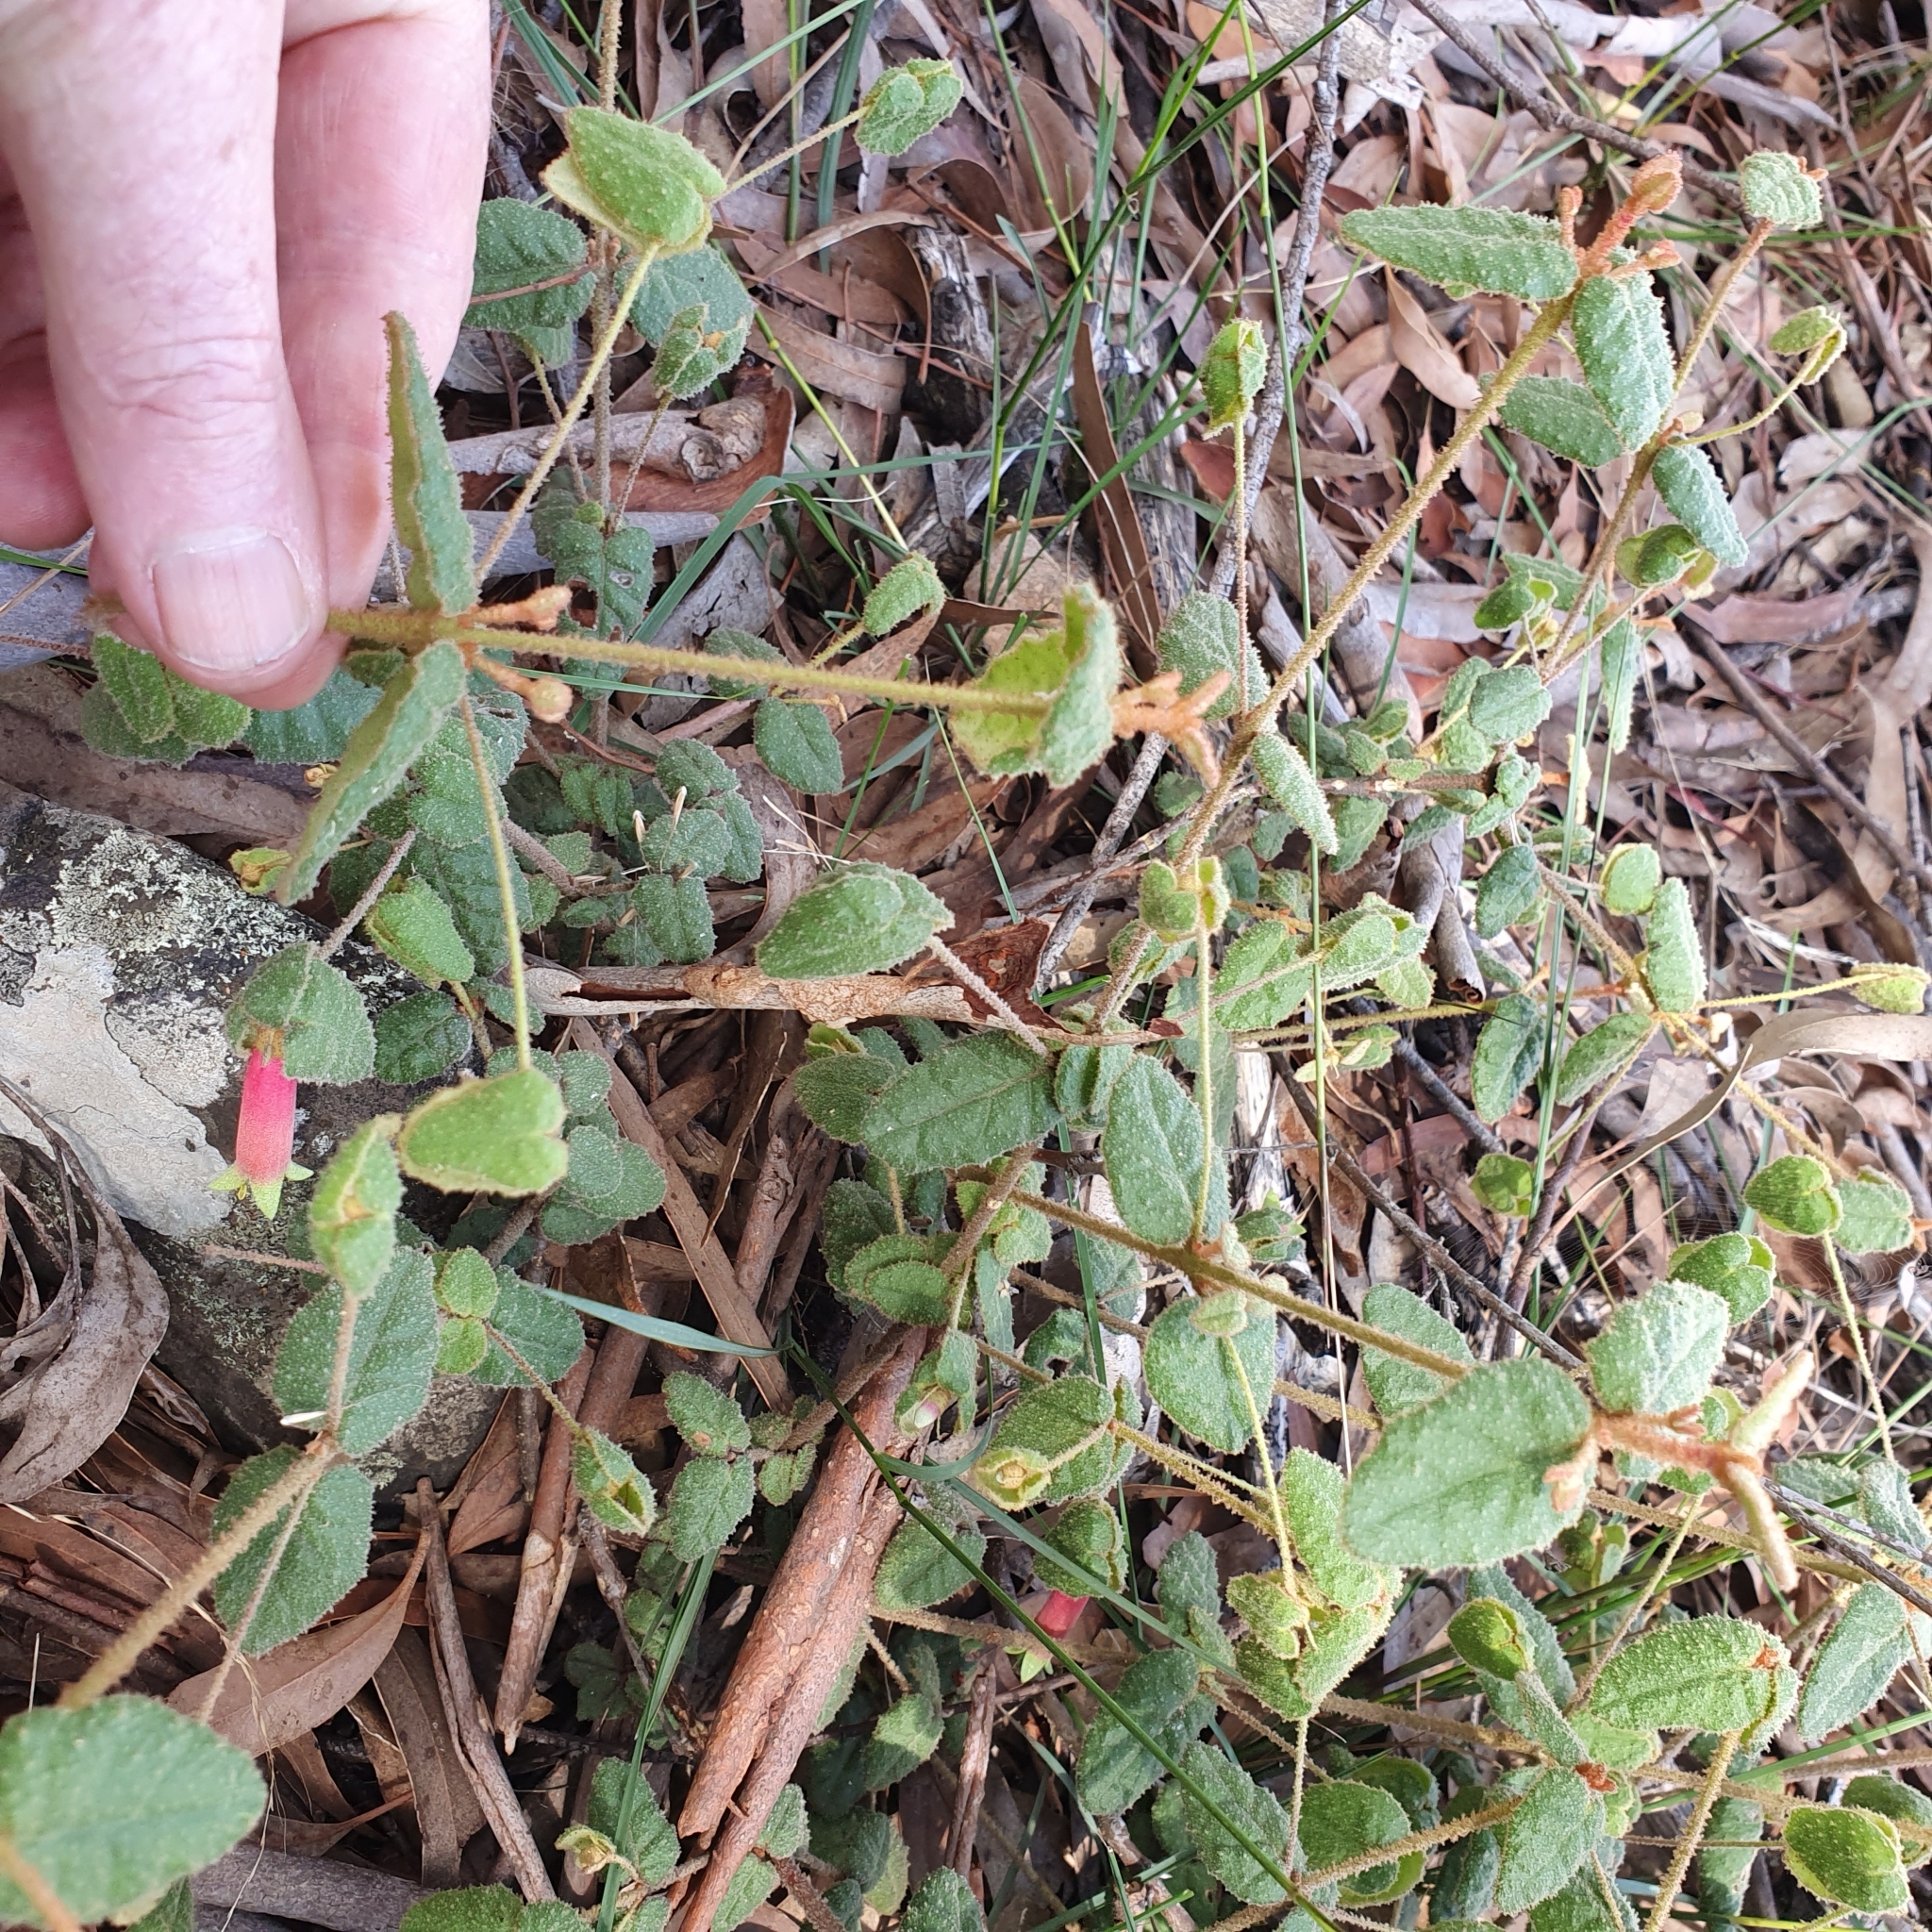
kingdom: Plantae
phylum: Tracheophyta
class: Magnoliopsida
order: Sapindales
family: Rutaceae
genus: Correa
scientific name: Correa reflexa
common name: Common correa
